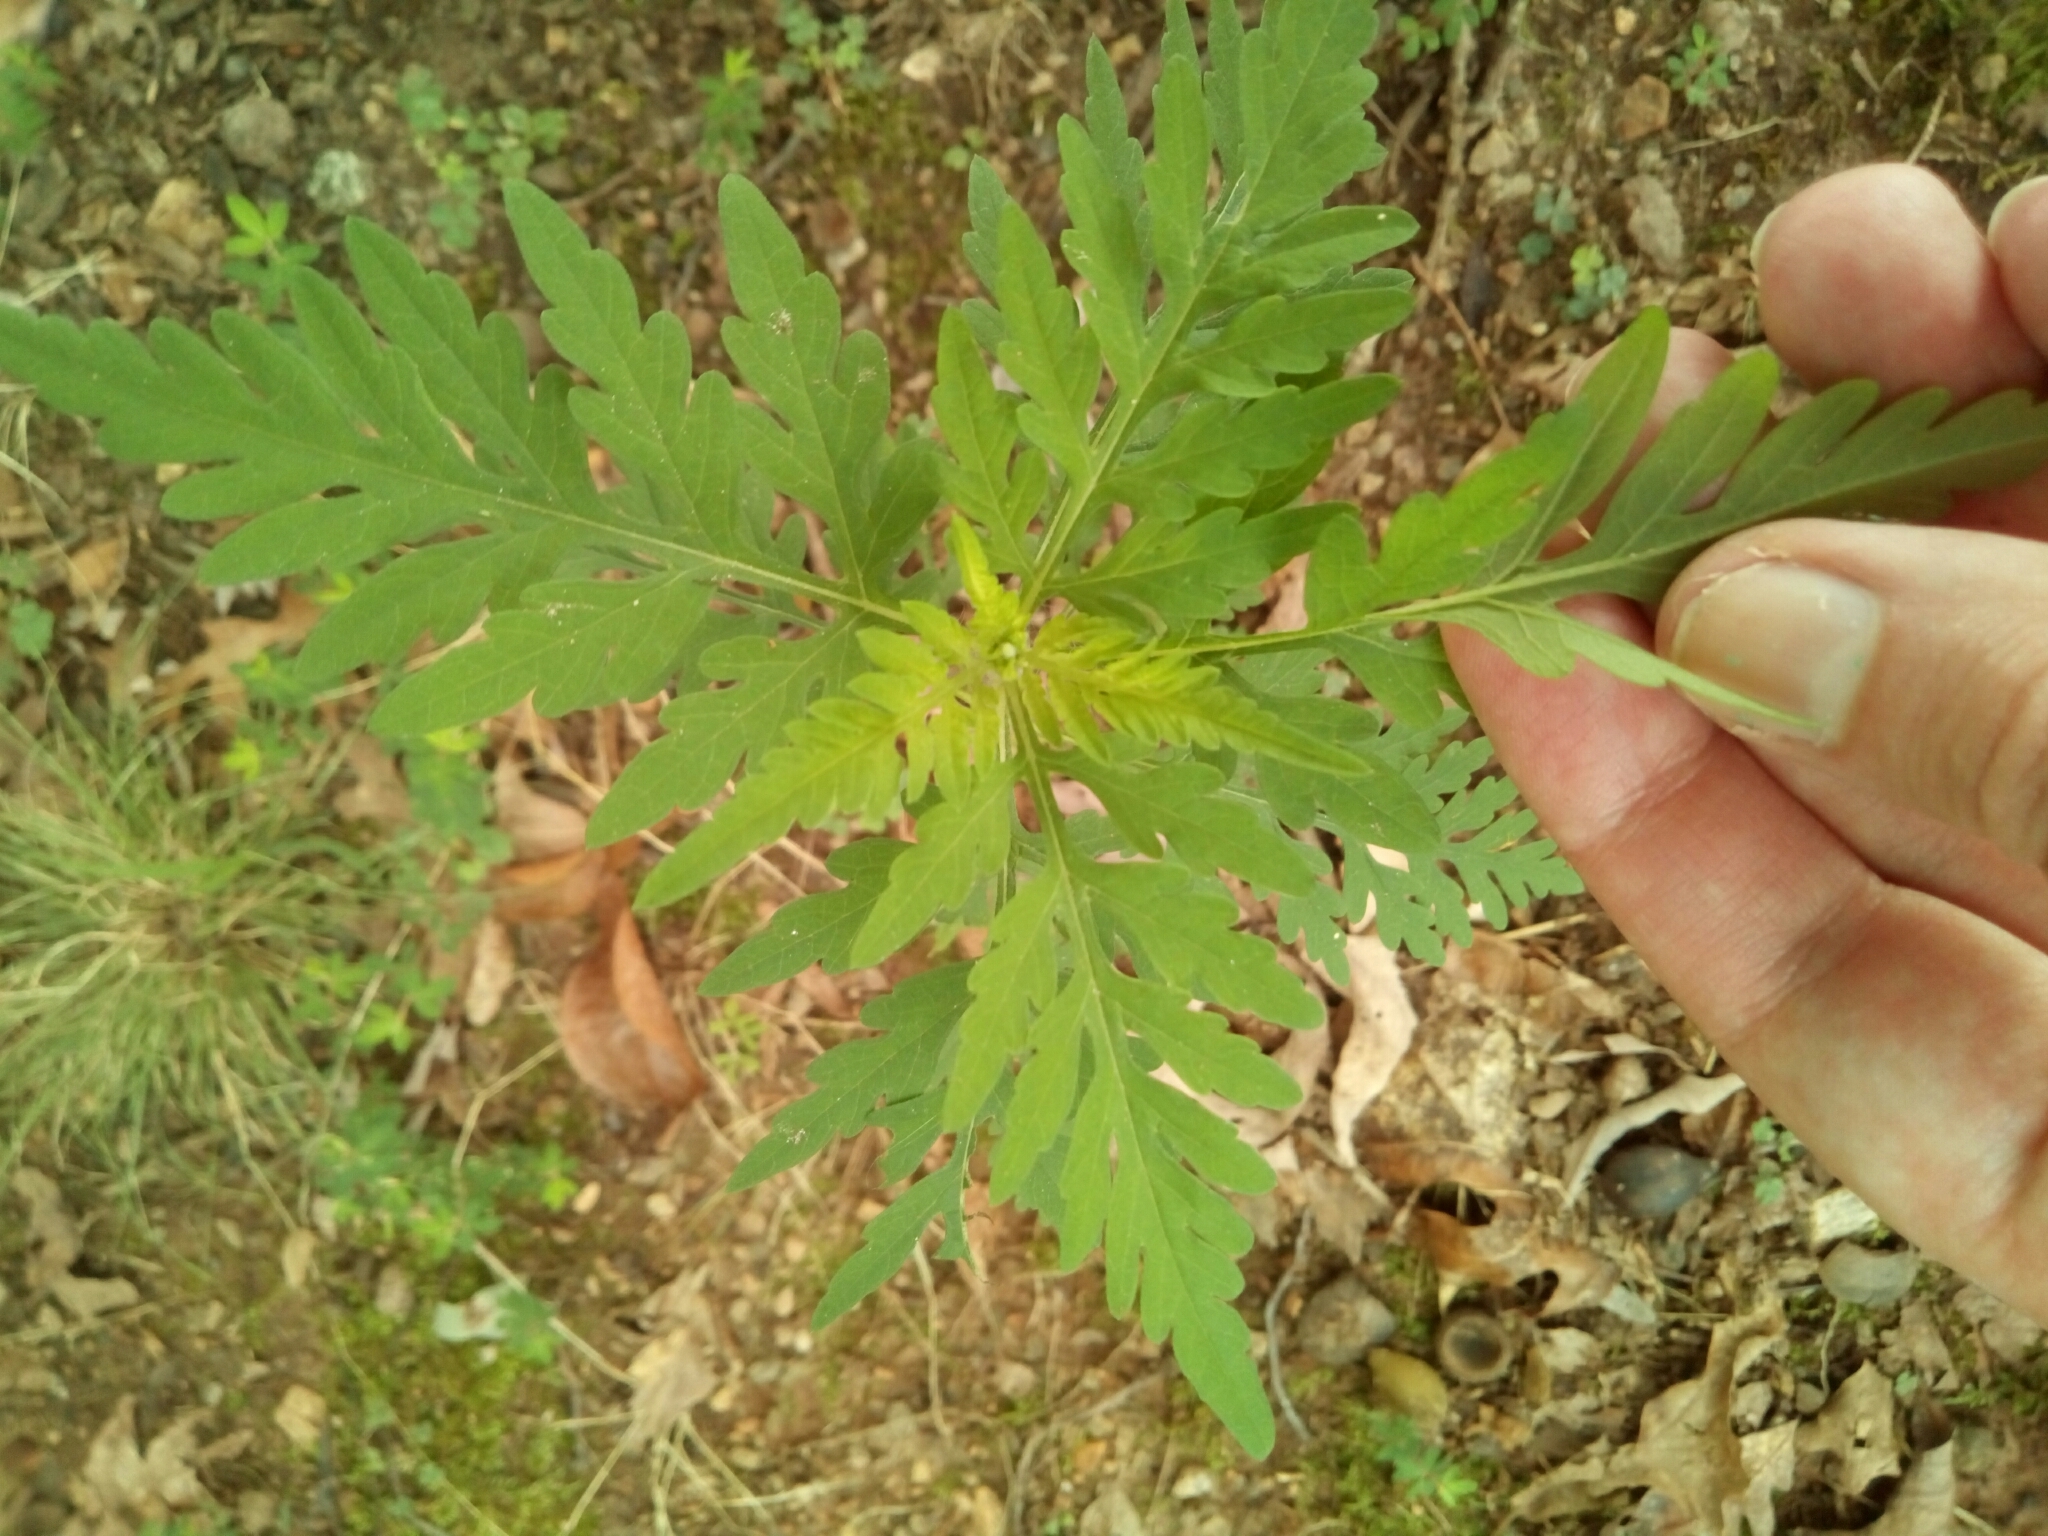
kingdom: Plantae
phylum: Tracheophyta
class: Magnoliopsida
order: Asterales
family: Asteraceae
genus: Ambrosia
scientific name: Ambrosia artemisiifolia
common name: Annual ragweed
